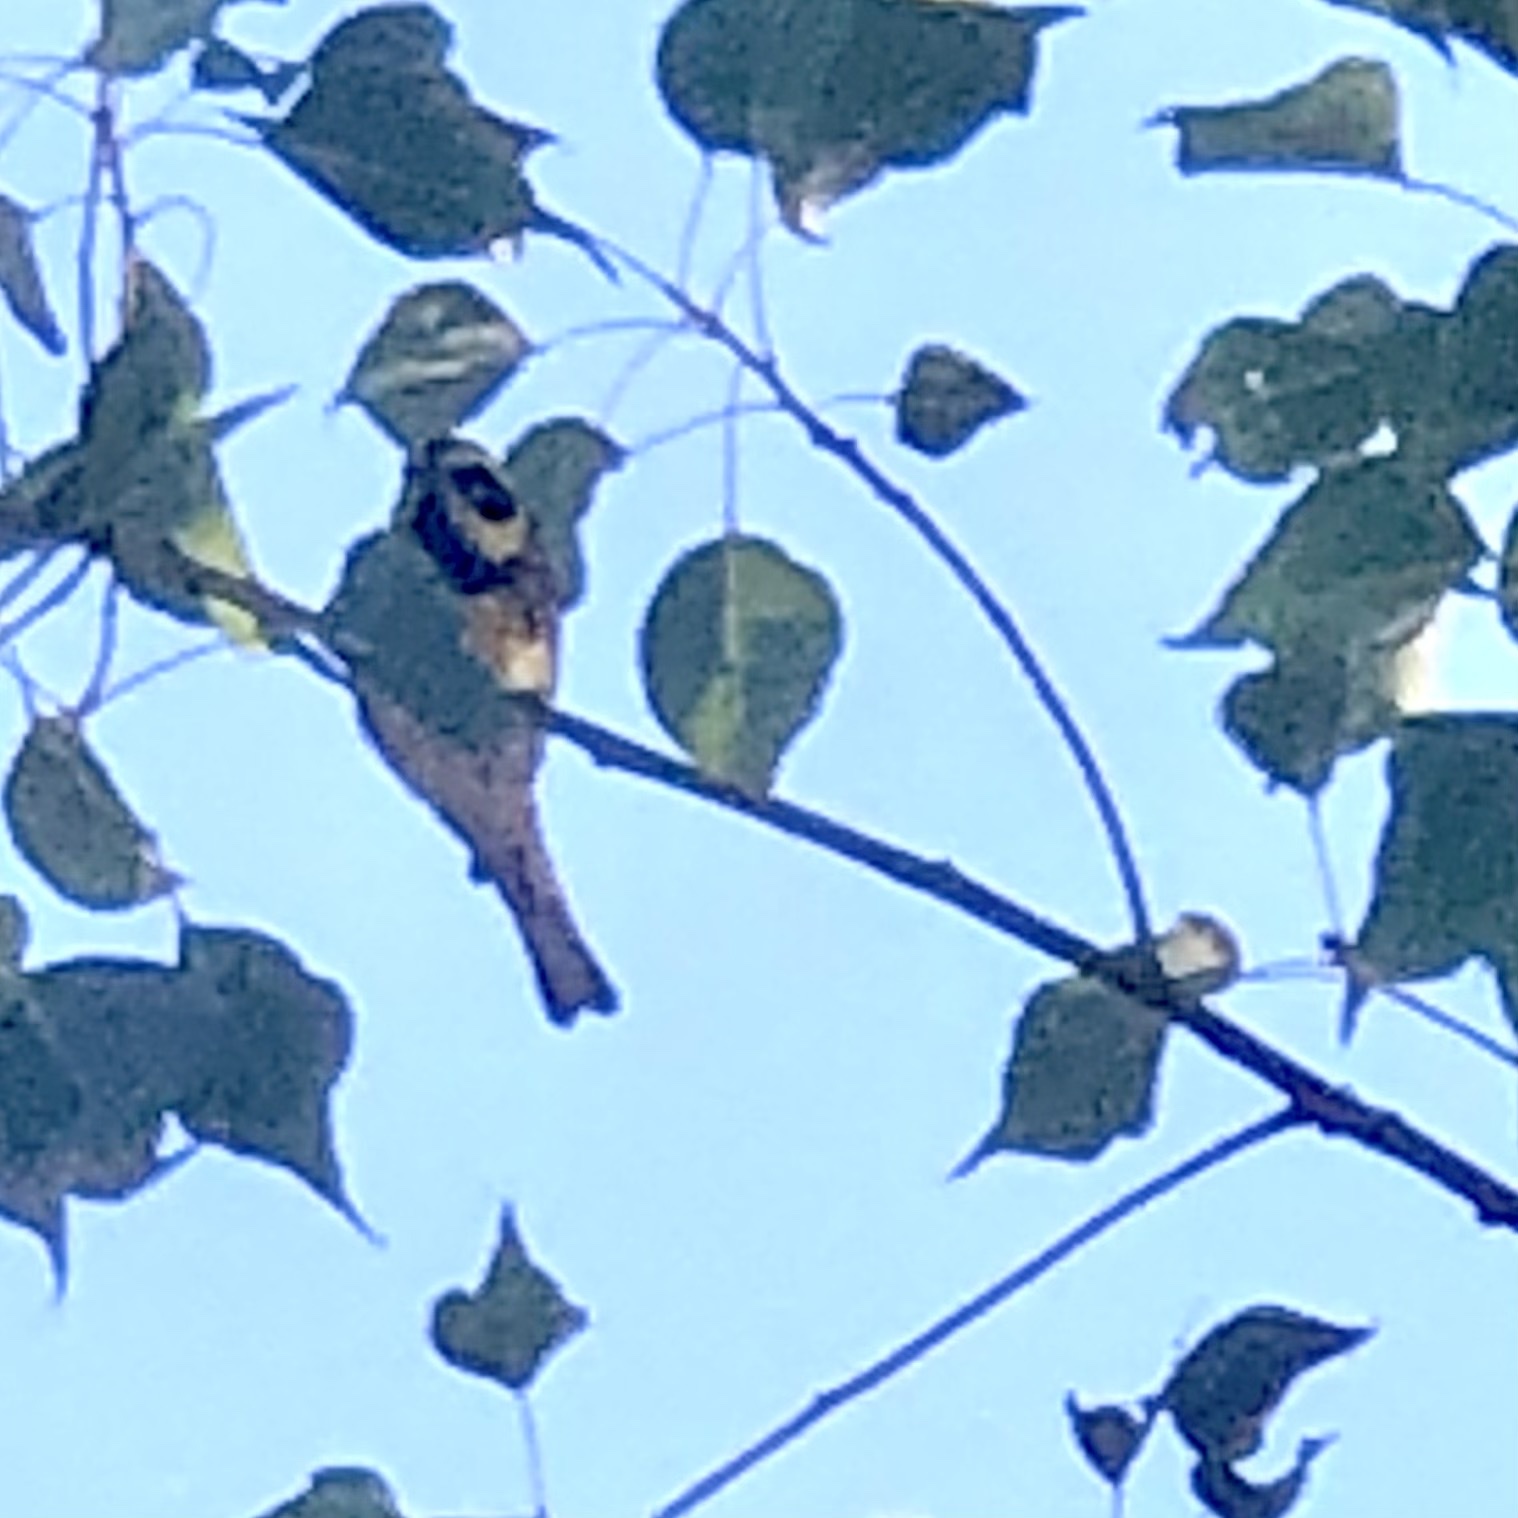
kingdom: Animalia
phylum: Chordata
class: Aves
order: Passeriformes
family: Parulidae
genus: Setophaga
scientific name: Setophaga townsendi
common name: Townsend's warbler
